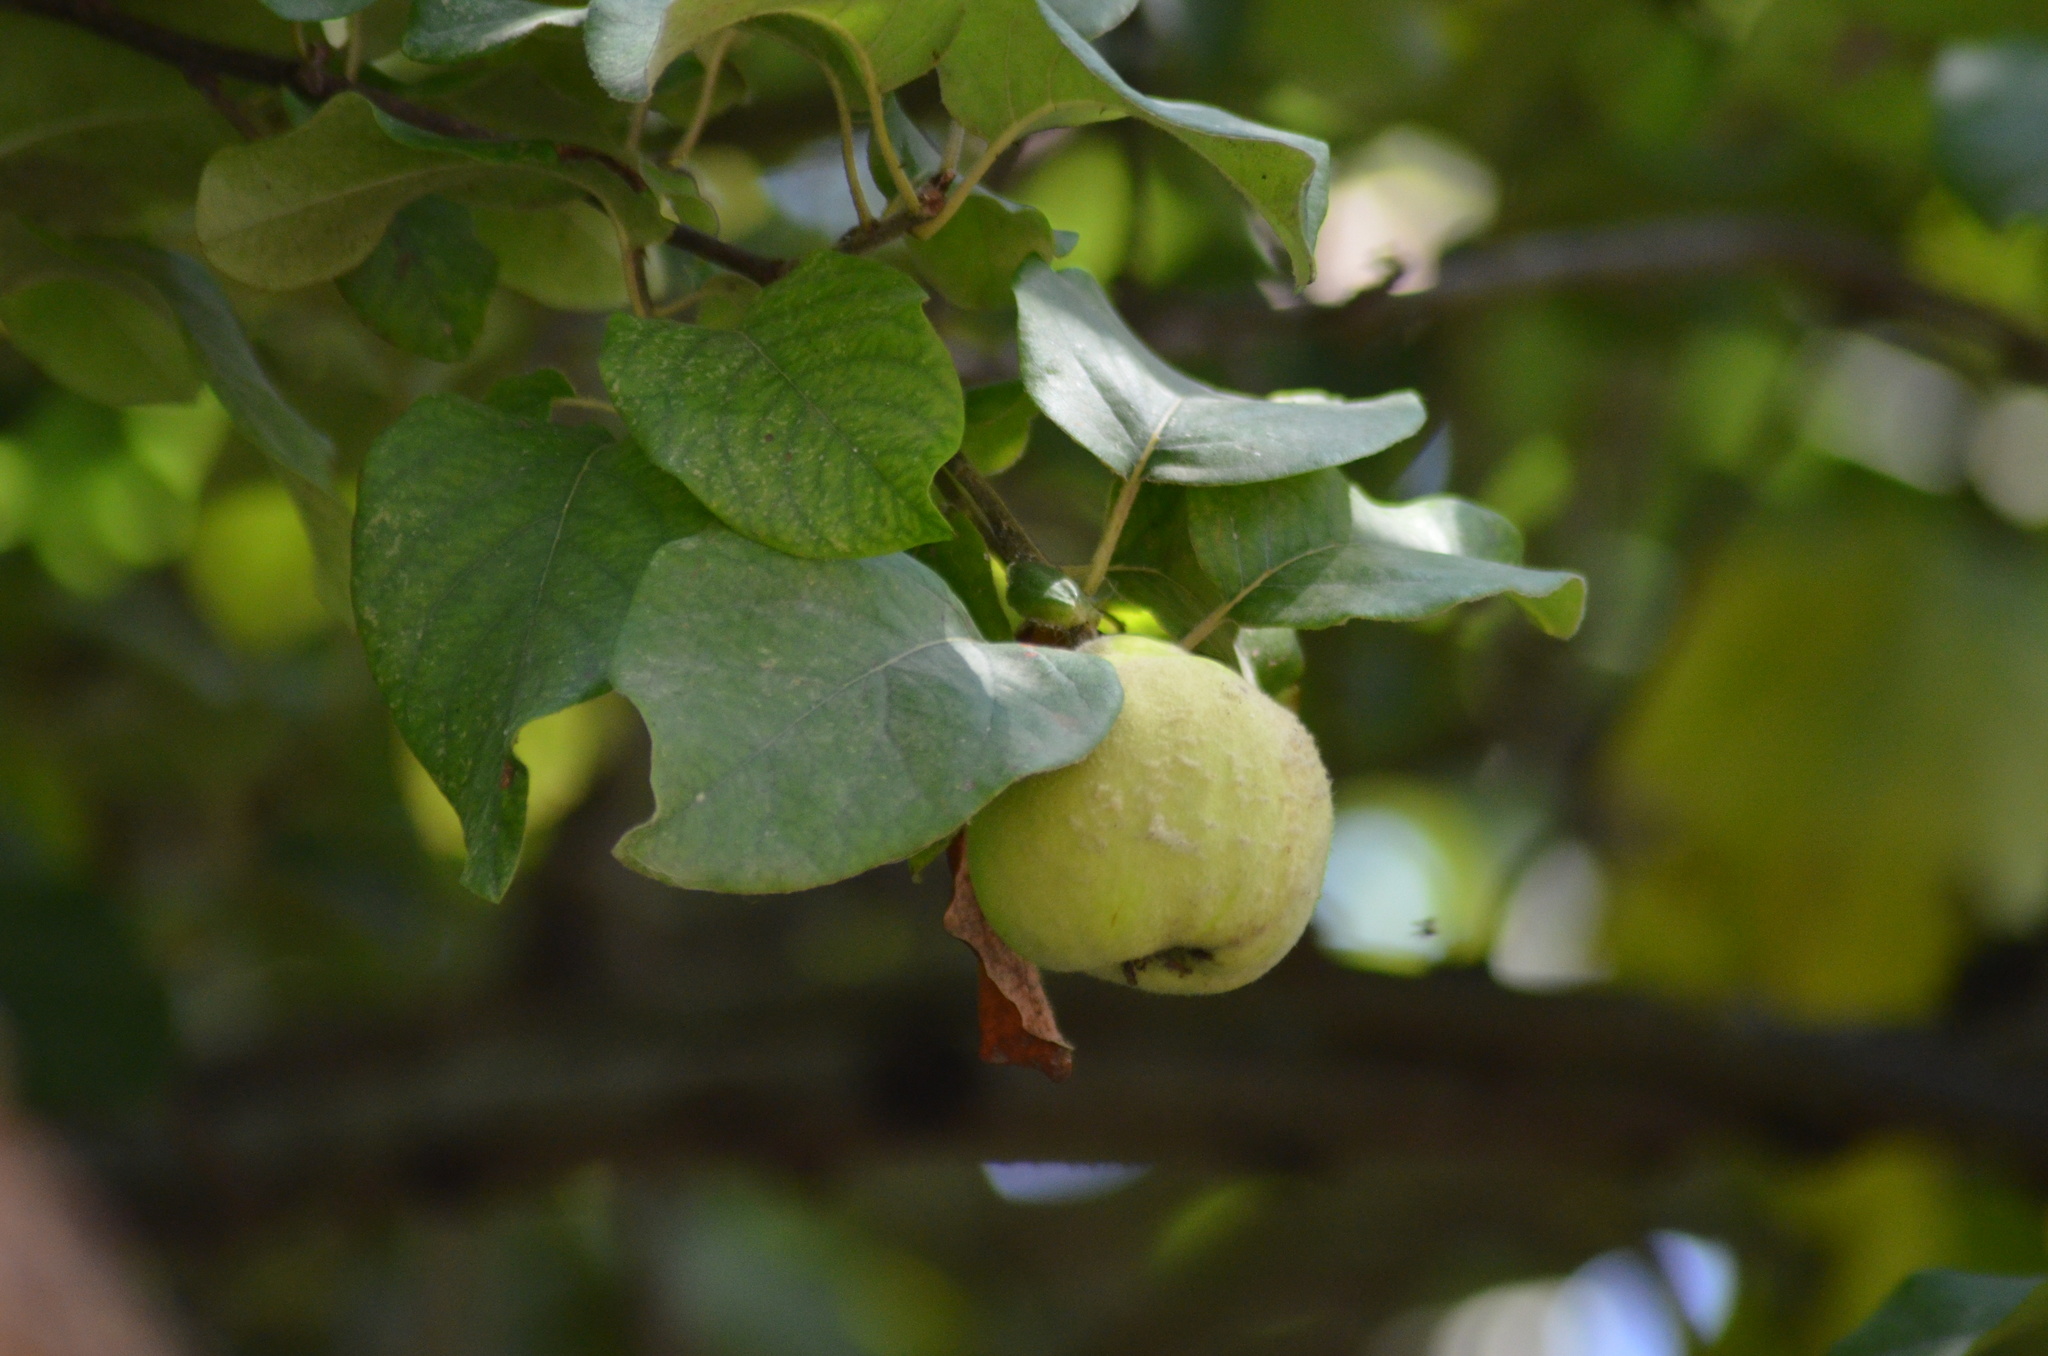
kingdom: Plantae
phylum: Tracheophyta
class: Magnoliopsida
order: Rosales
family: Rosaceae
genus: Cydonia
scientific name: Cydonia oblonga
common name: Quince
